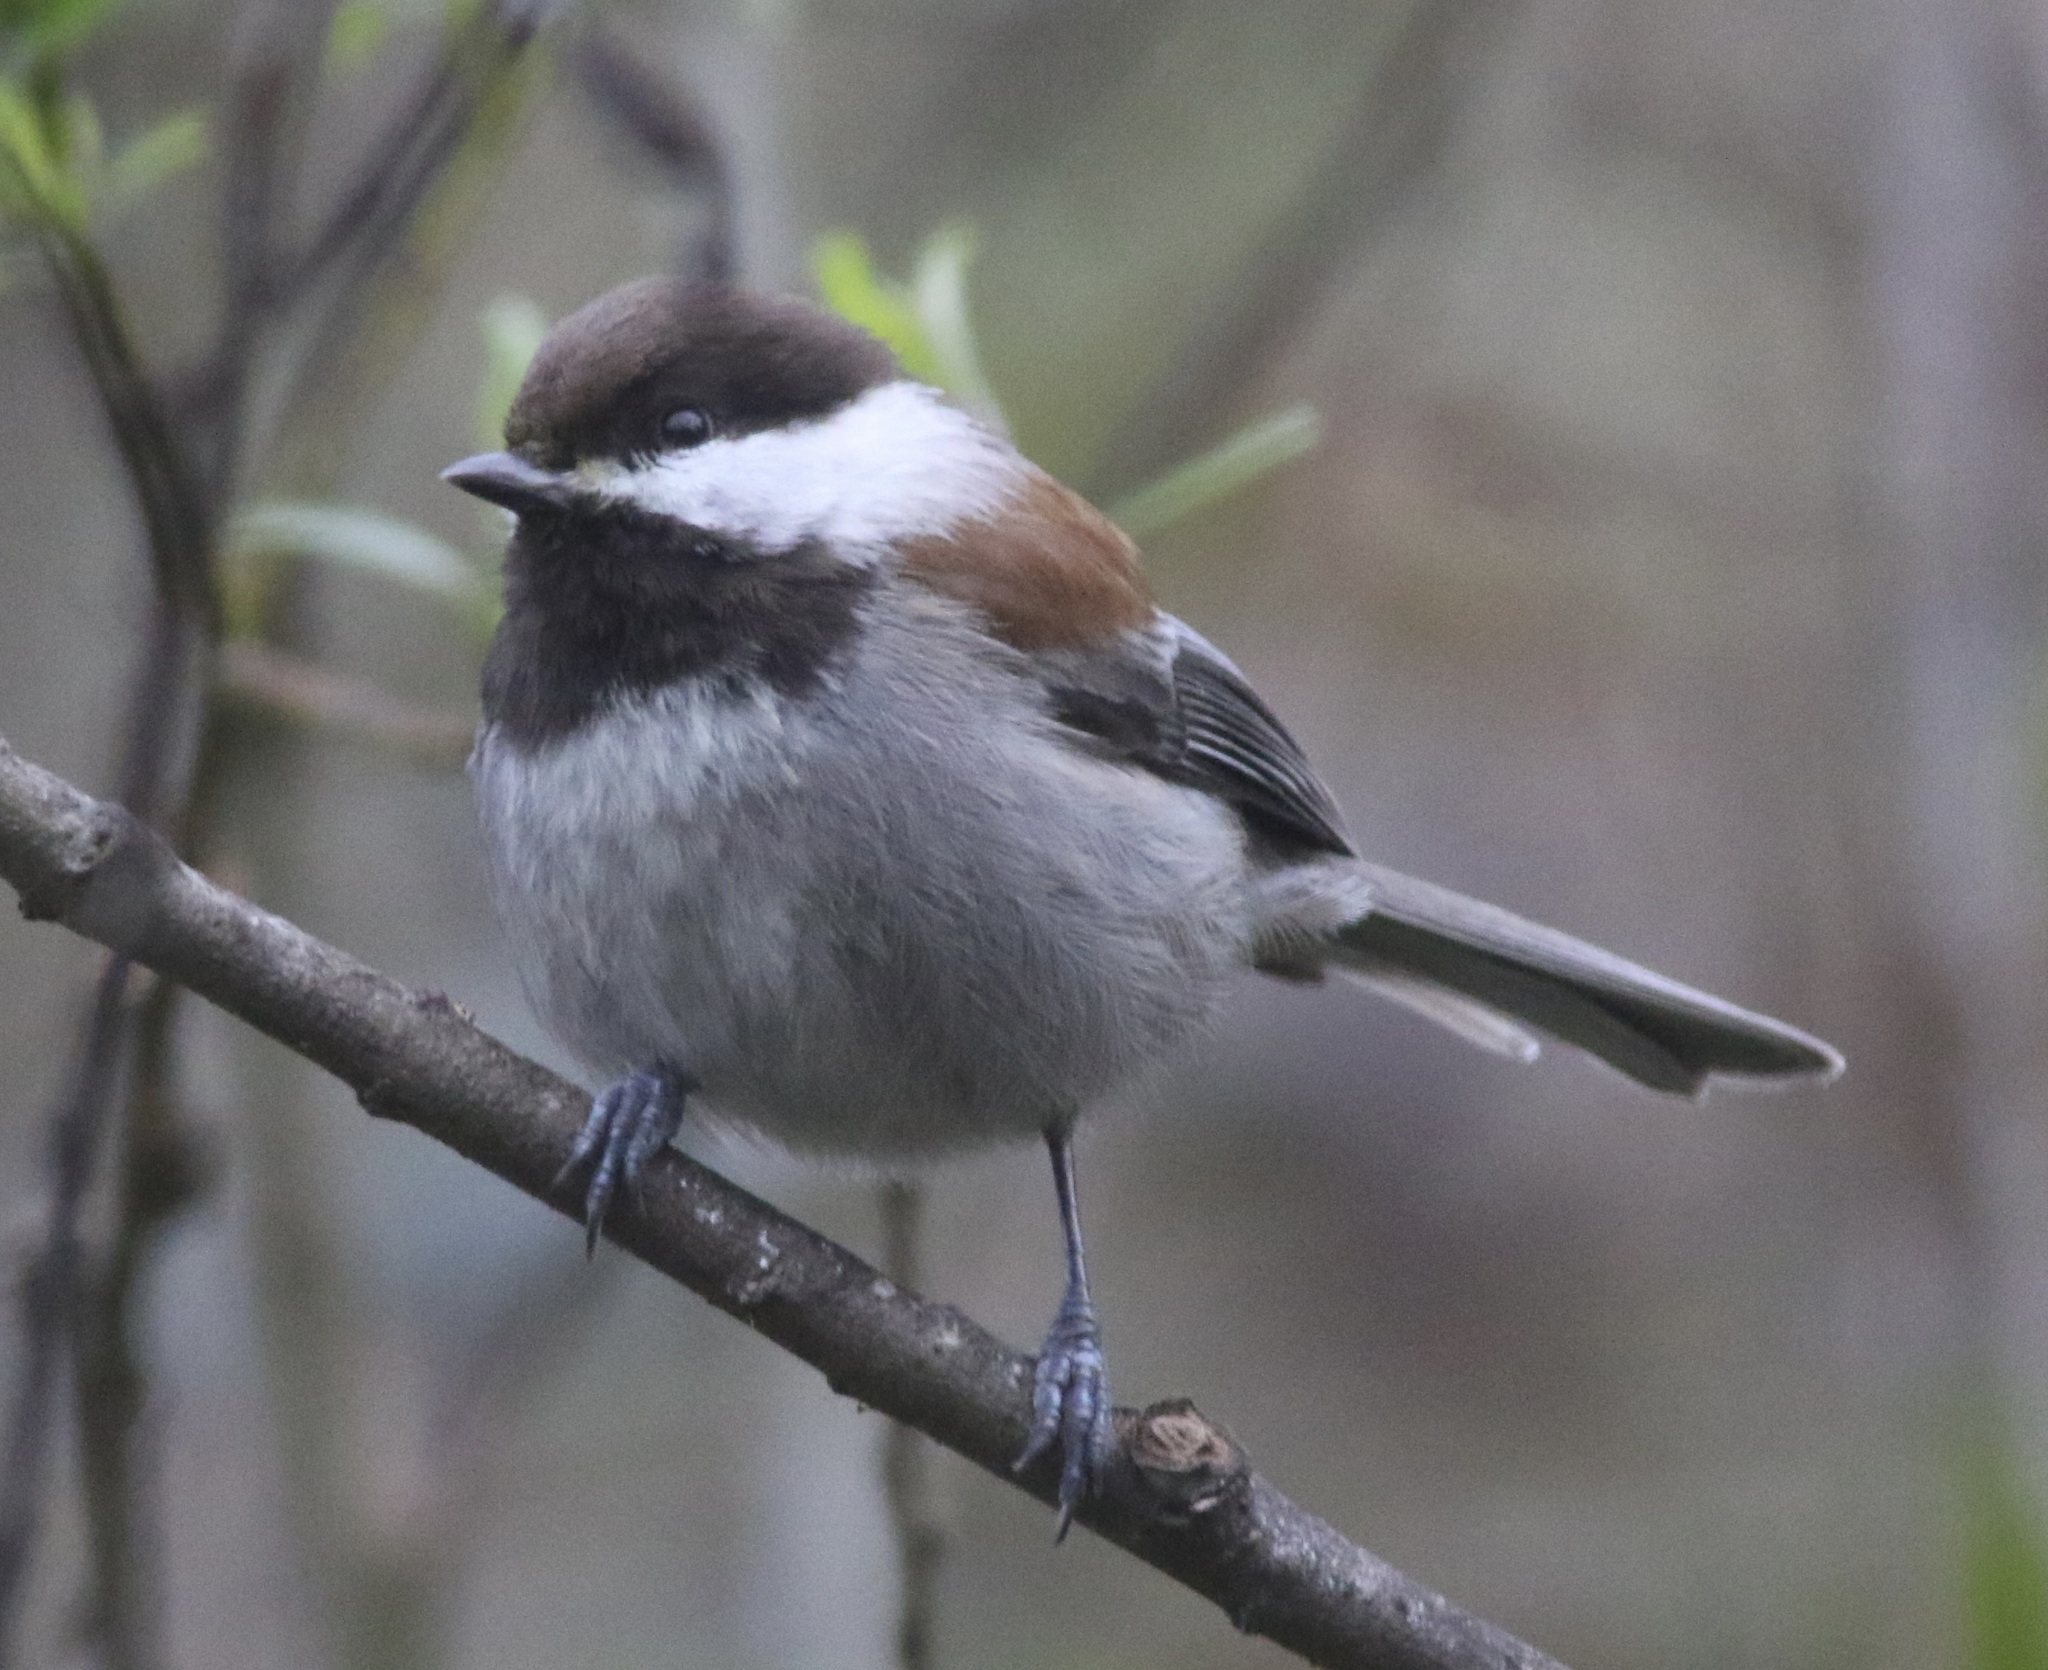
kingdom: Animalia
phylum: Chordata
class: Aves
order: Passeriformes
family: Paridae
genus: Poecile
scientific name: Poecile rufescens
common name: Chestnut-backed chickadee
